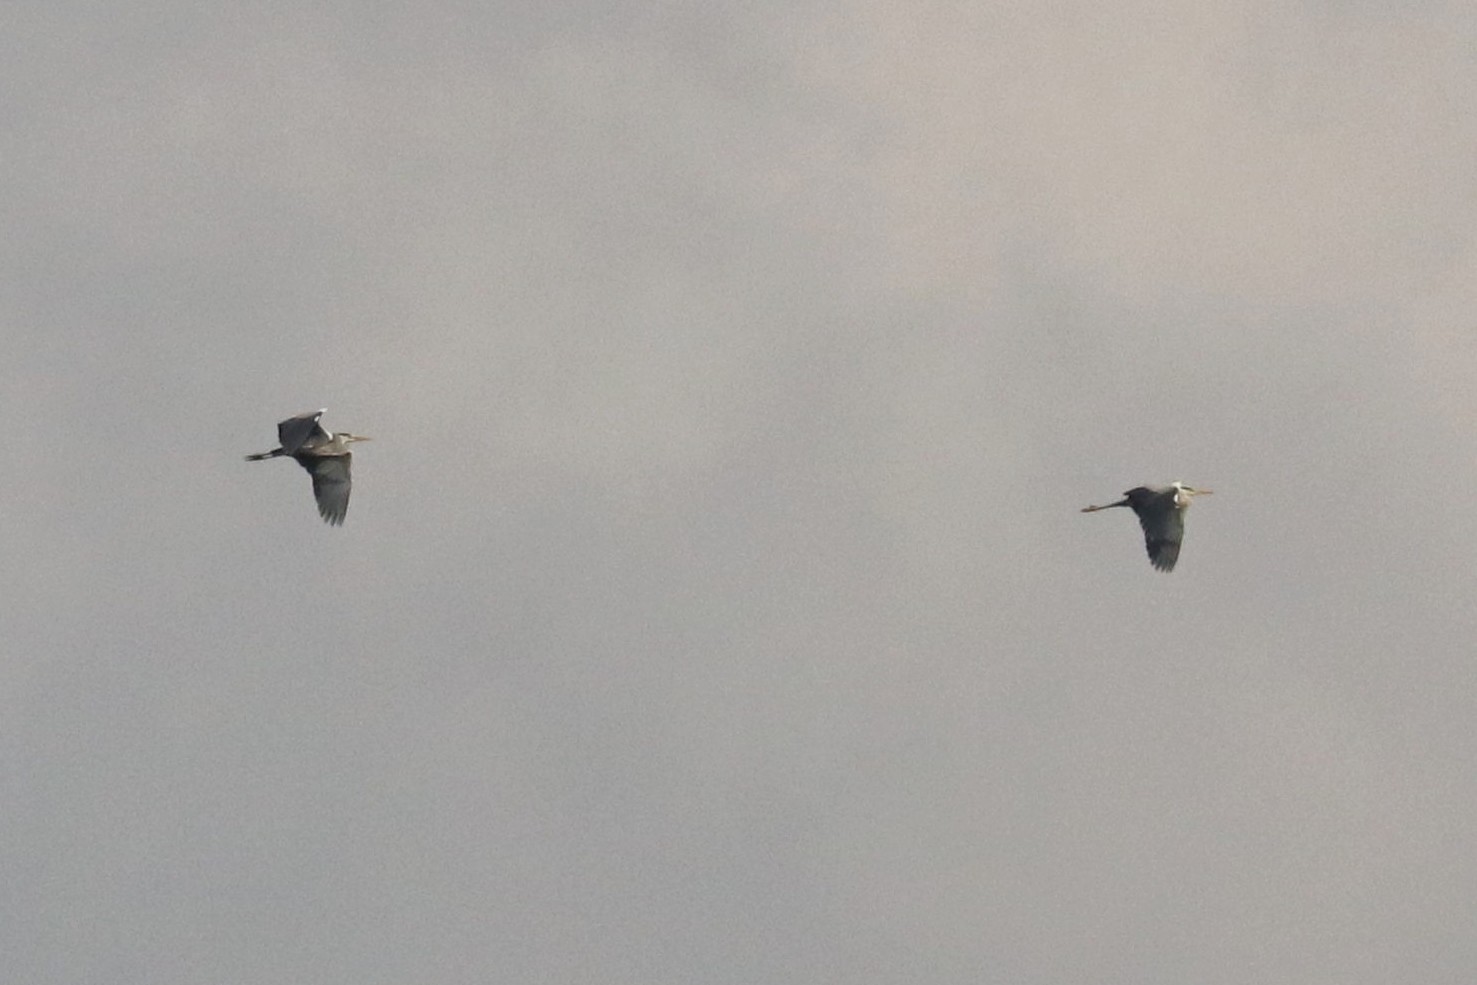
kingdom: Animalia
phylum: Chordata
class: Aves
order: Pelecaniformes
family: Ardeidae
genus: Ardea
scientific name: Ardea cinerea
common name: Grey heron
